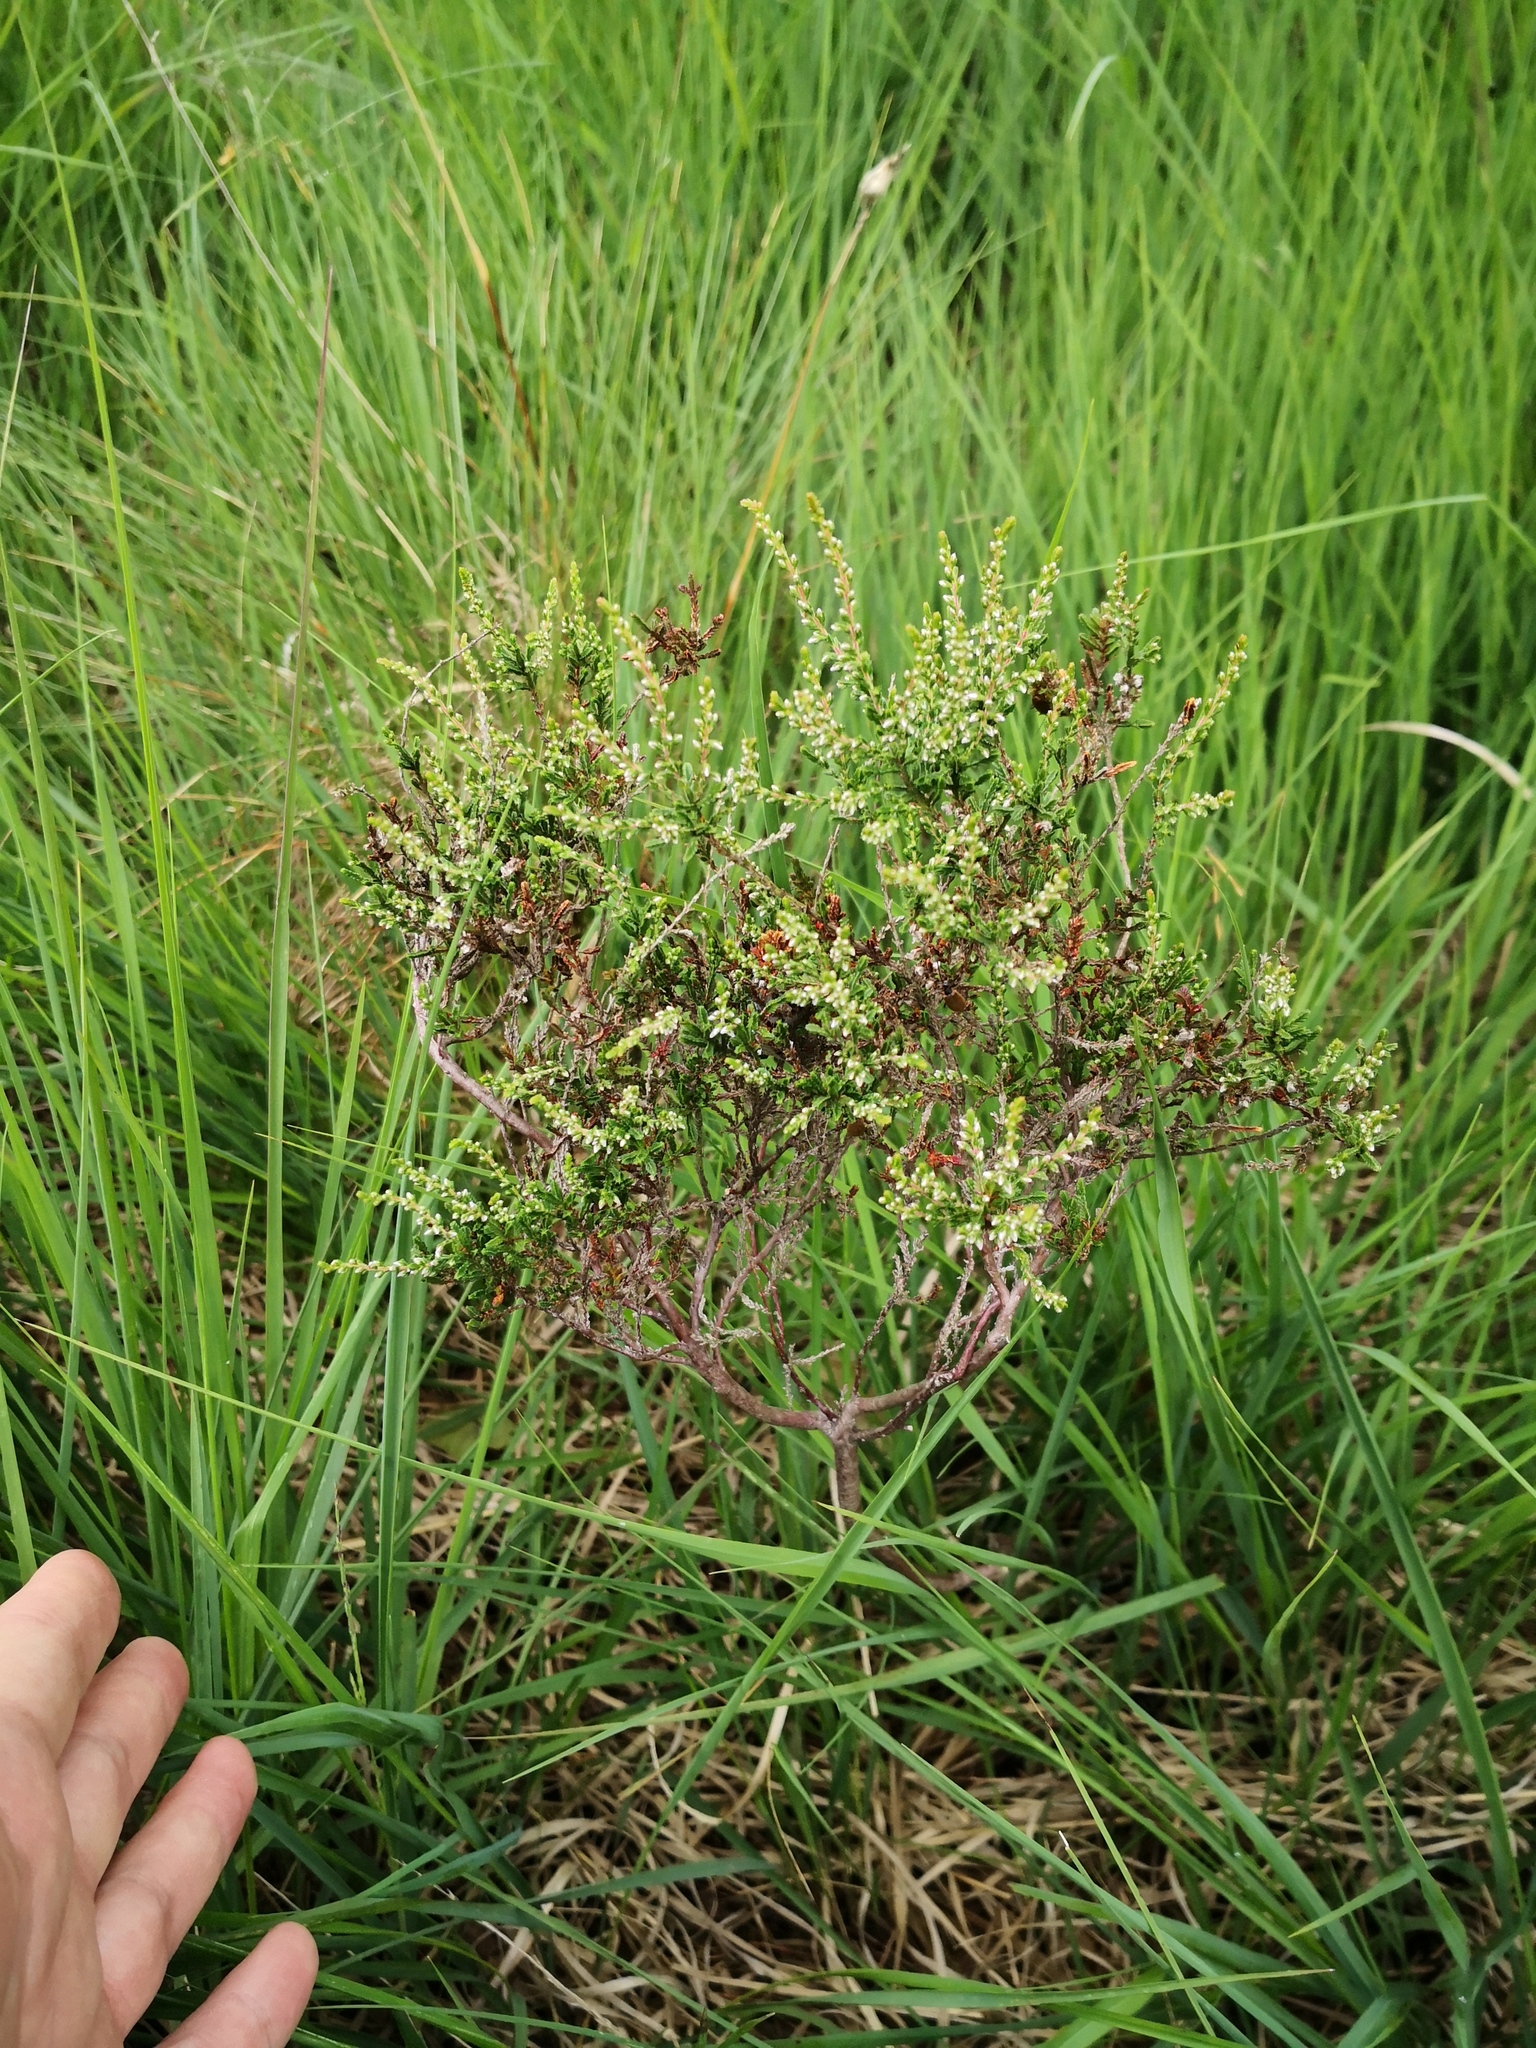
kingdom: Plantae
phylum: Tracheophyta
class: Magnoliopsida
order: Ericales
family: Ericaceae
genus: Calluna
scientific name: Calluna vulgaris
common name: Heather
